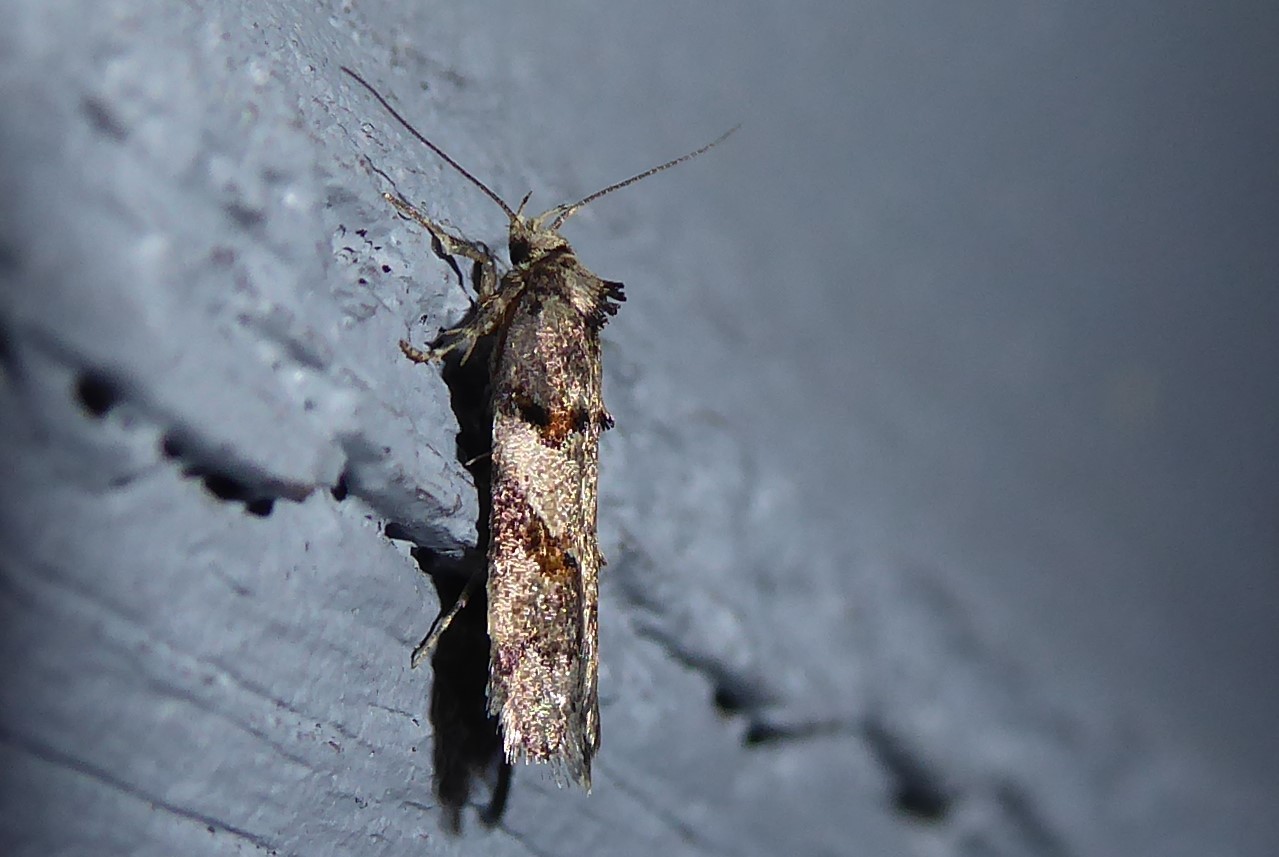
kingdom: Animalia
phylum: Arthropoda
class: Insecta
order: Lepidoptera
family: Oecophoridae
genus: Trachypepla
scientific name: Trachypepla contritella
